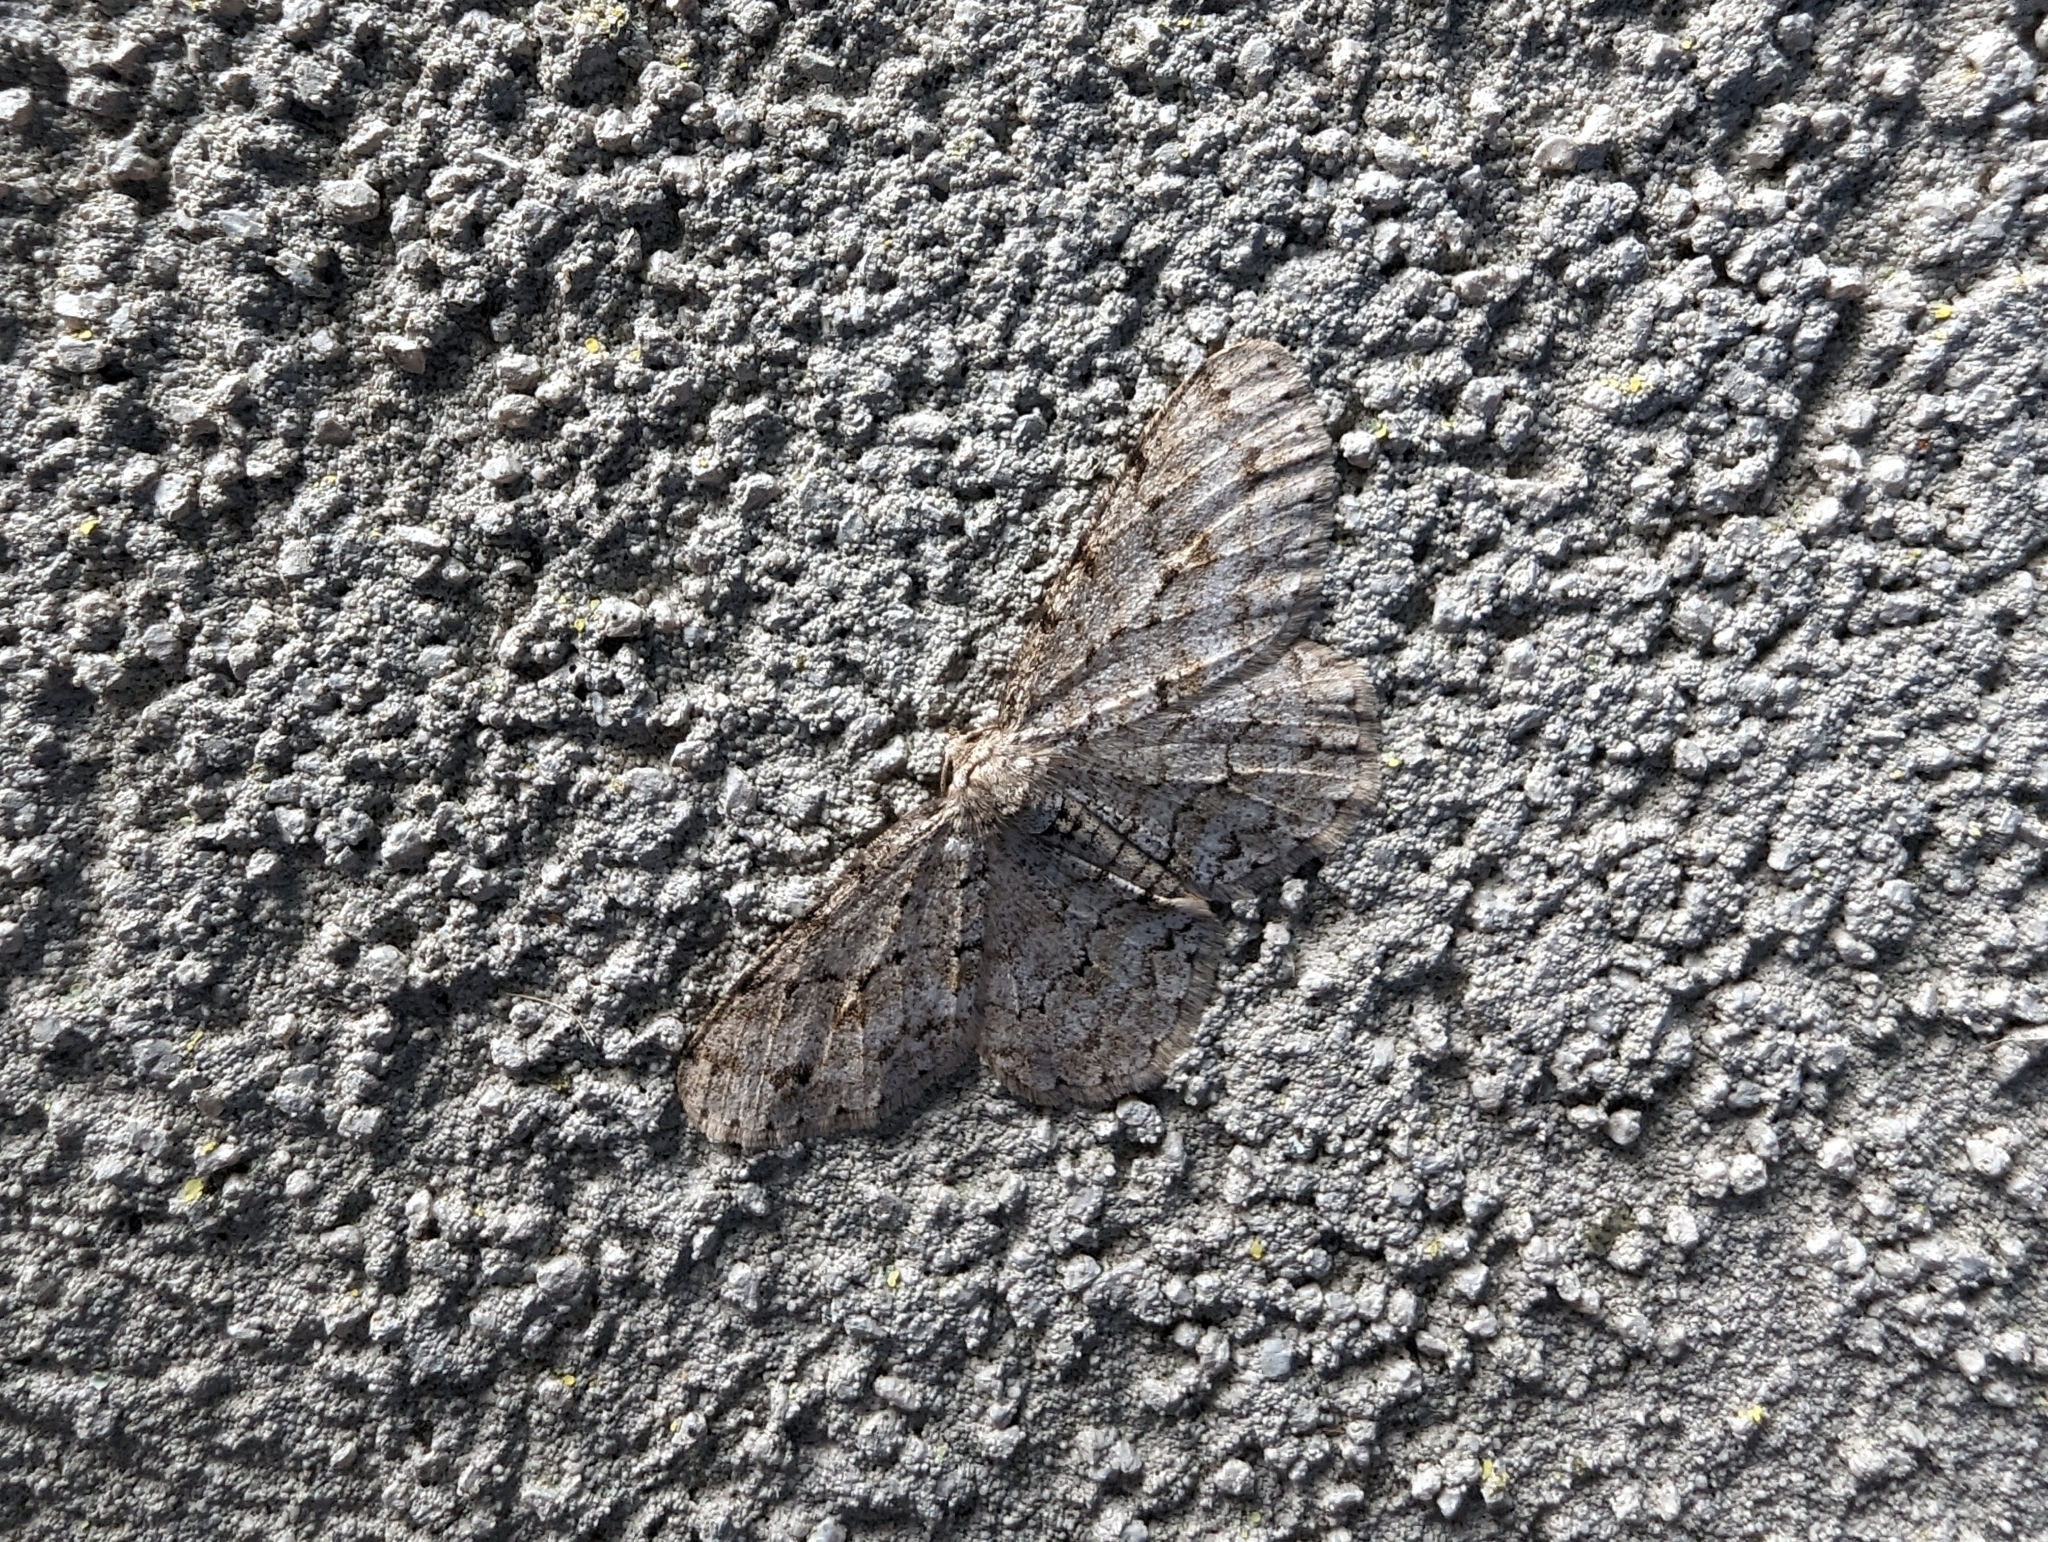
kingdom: Animalia
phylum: Arthropoda
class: Insecta
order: Lepidoptera
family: Geometridae
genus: Ectropis
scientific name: Ectropis crepuscularia
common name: Engrailed
